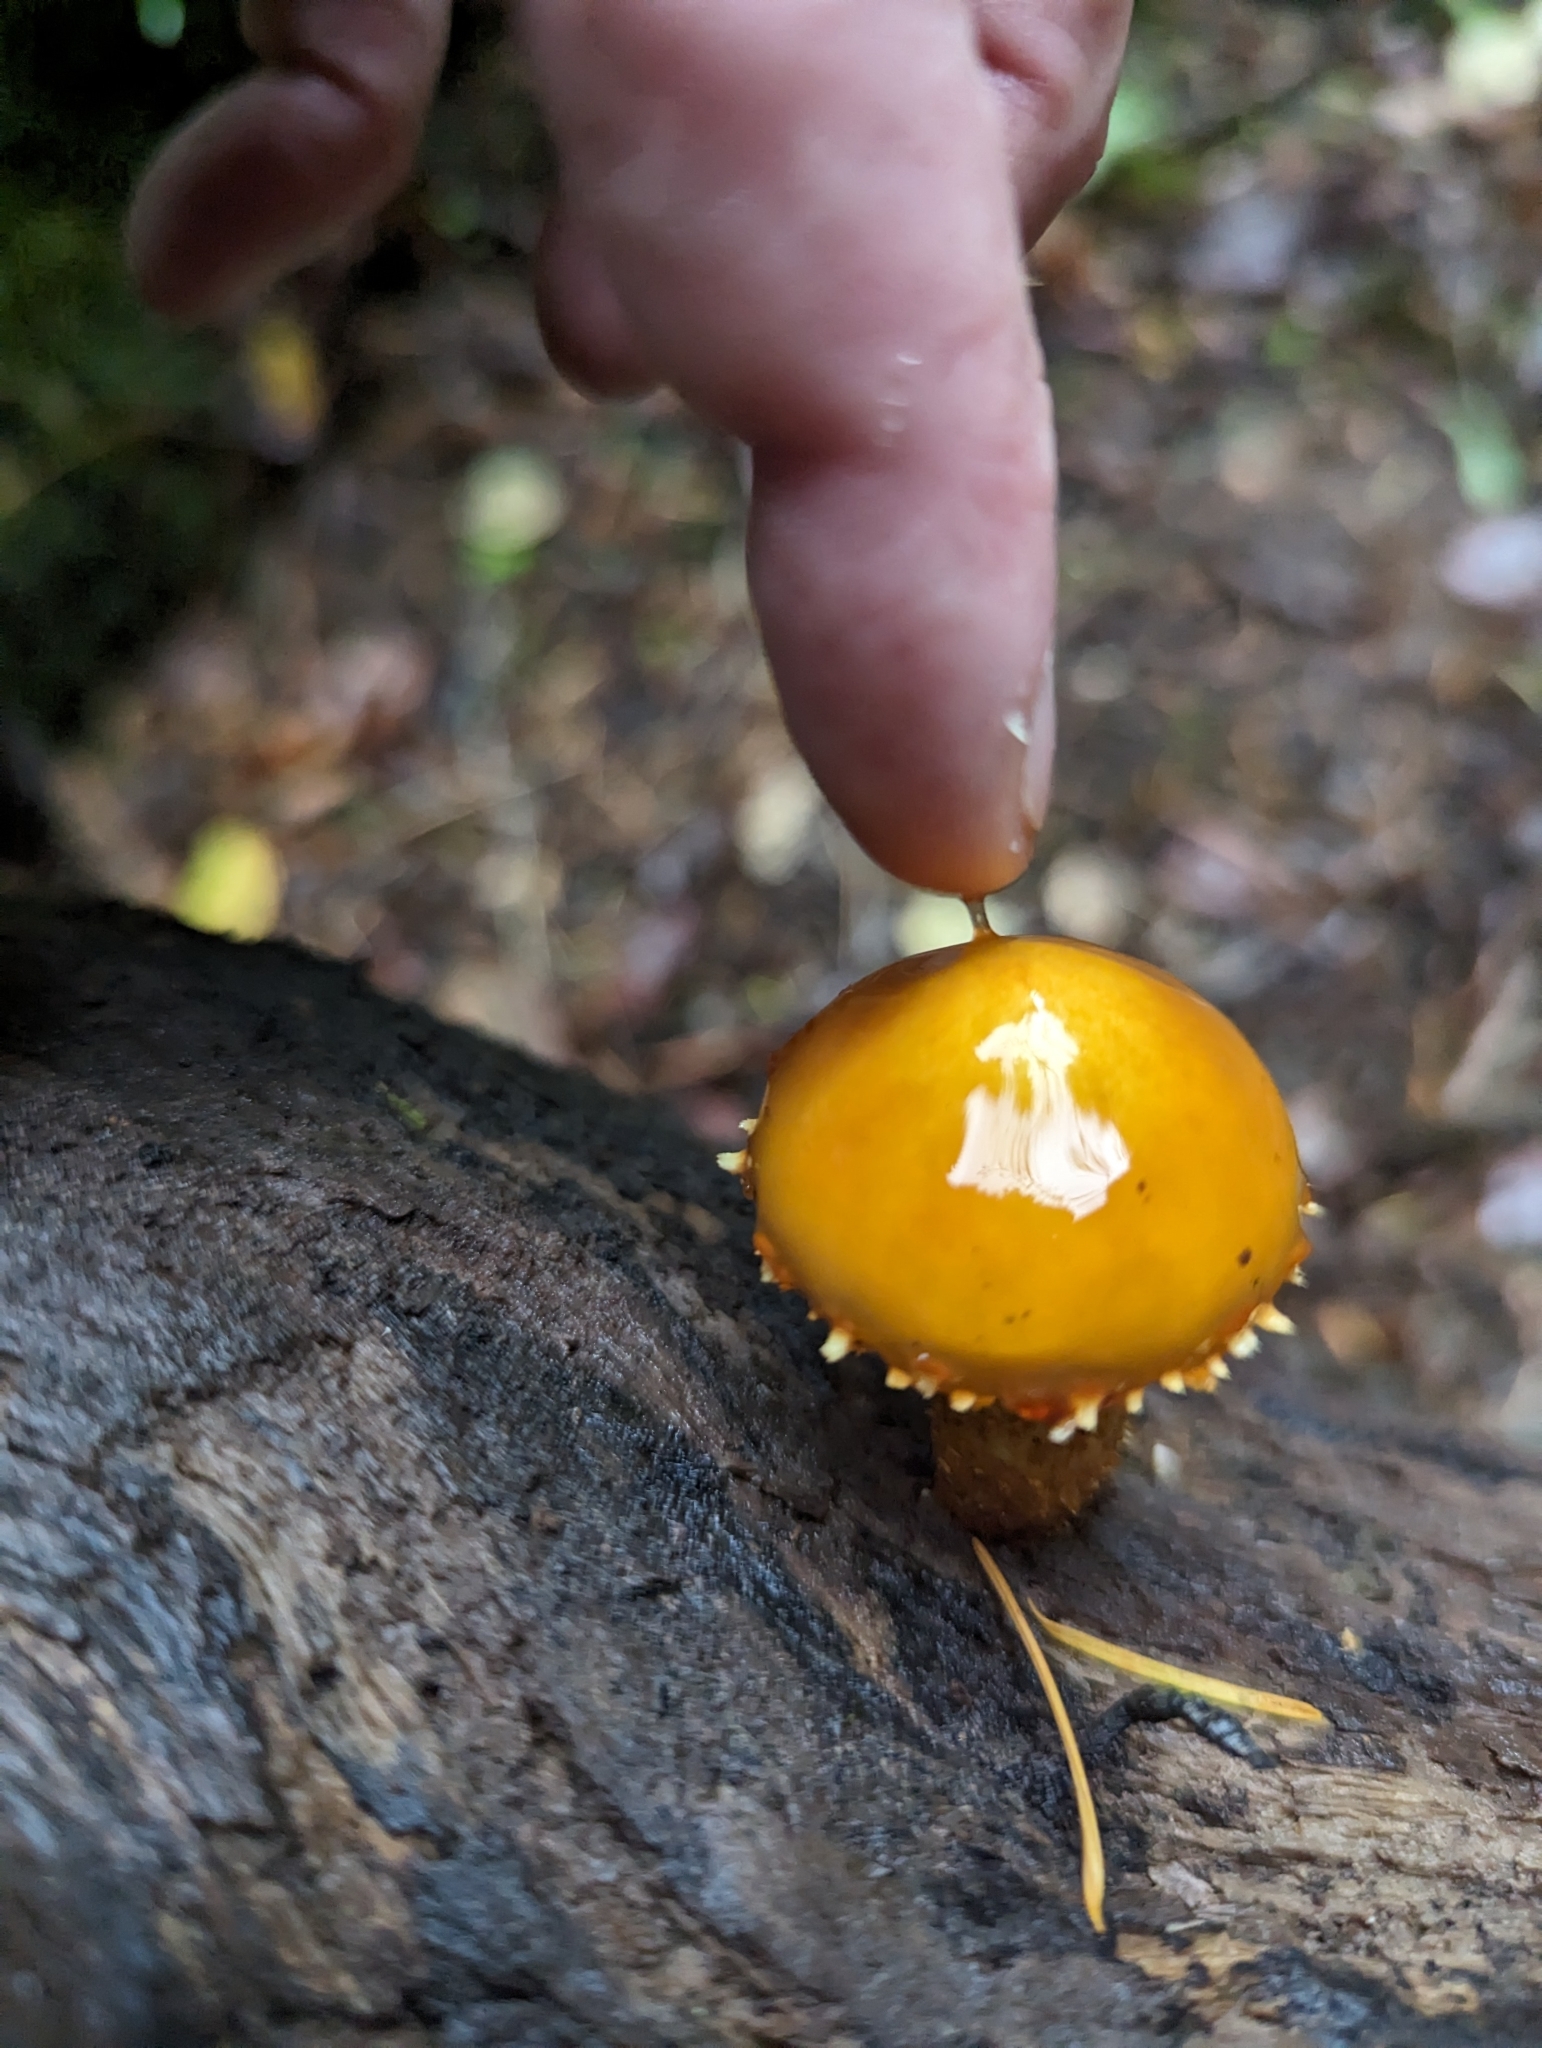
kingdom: Fungi
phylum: Basidiomycota
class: Agaricomycetes
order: Agaricales
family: Strophariaceae
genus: Pholiota
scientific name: Pholiota limonella
